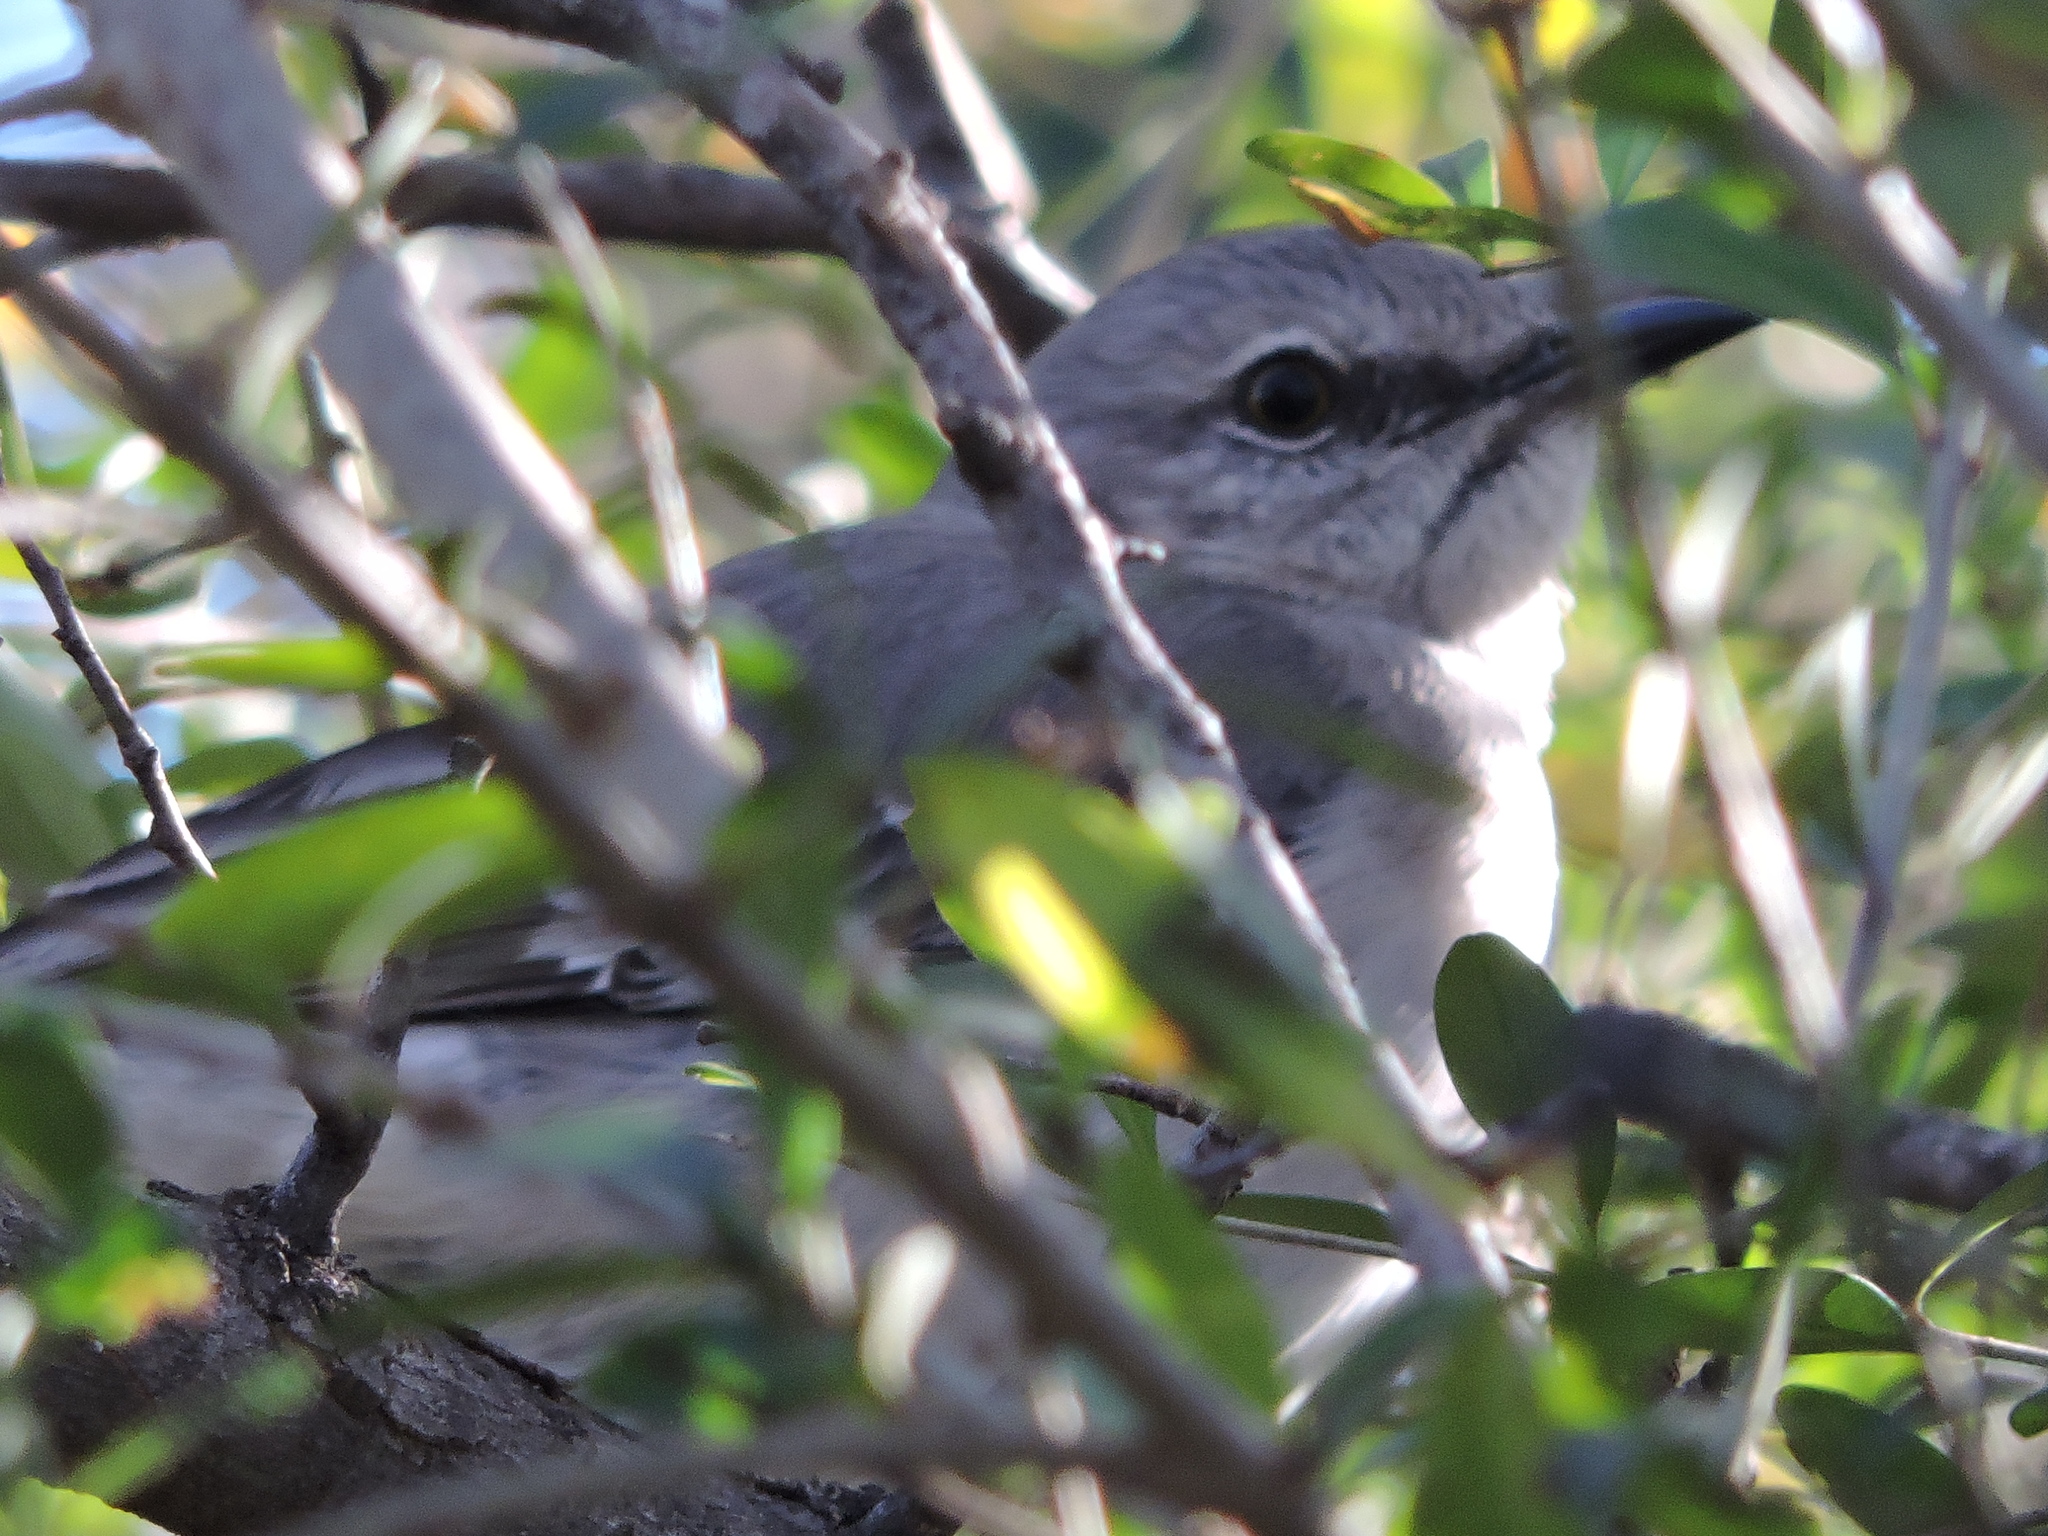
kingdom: Animalia
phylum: Chordata
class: Aves
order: Passeriformes
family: Mimidae
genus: Mimus
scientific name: Mimus polyglottos
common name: Northern mockingbird
